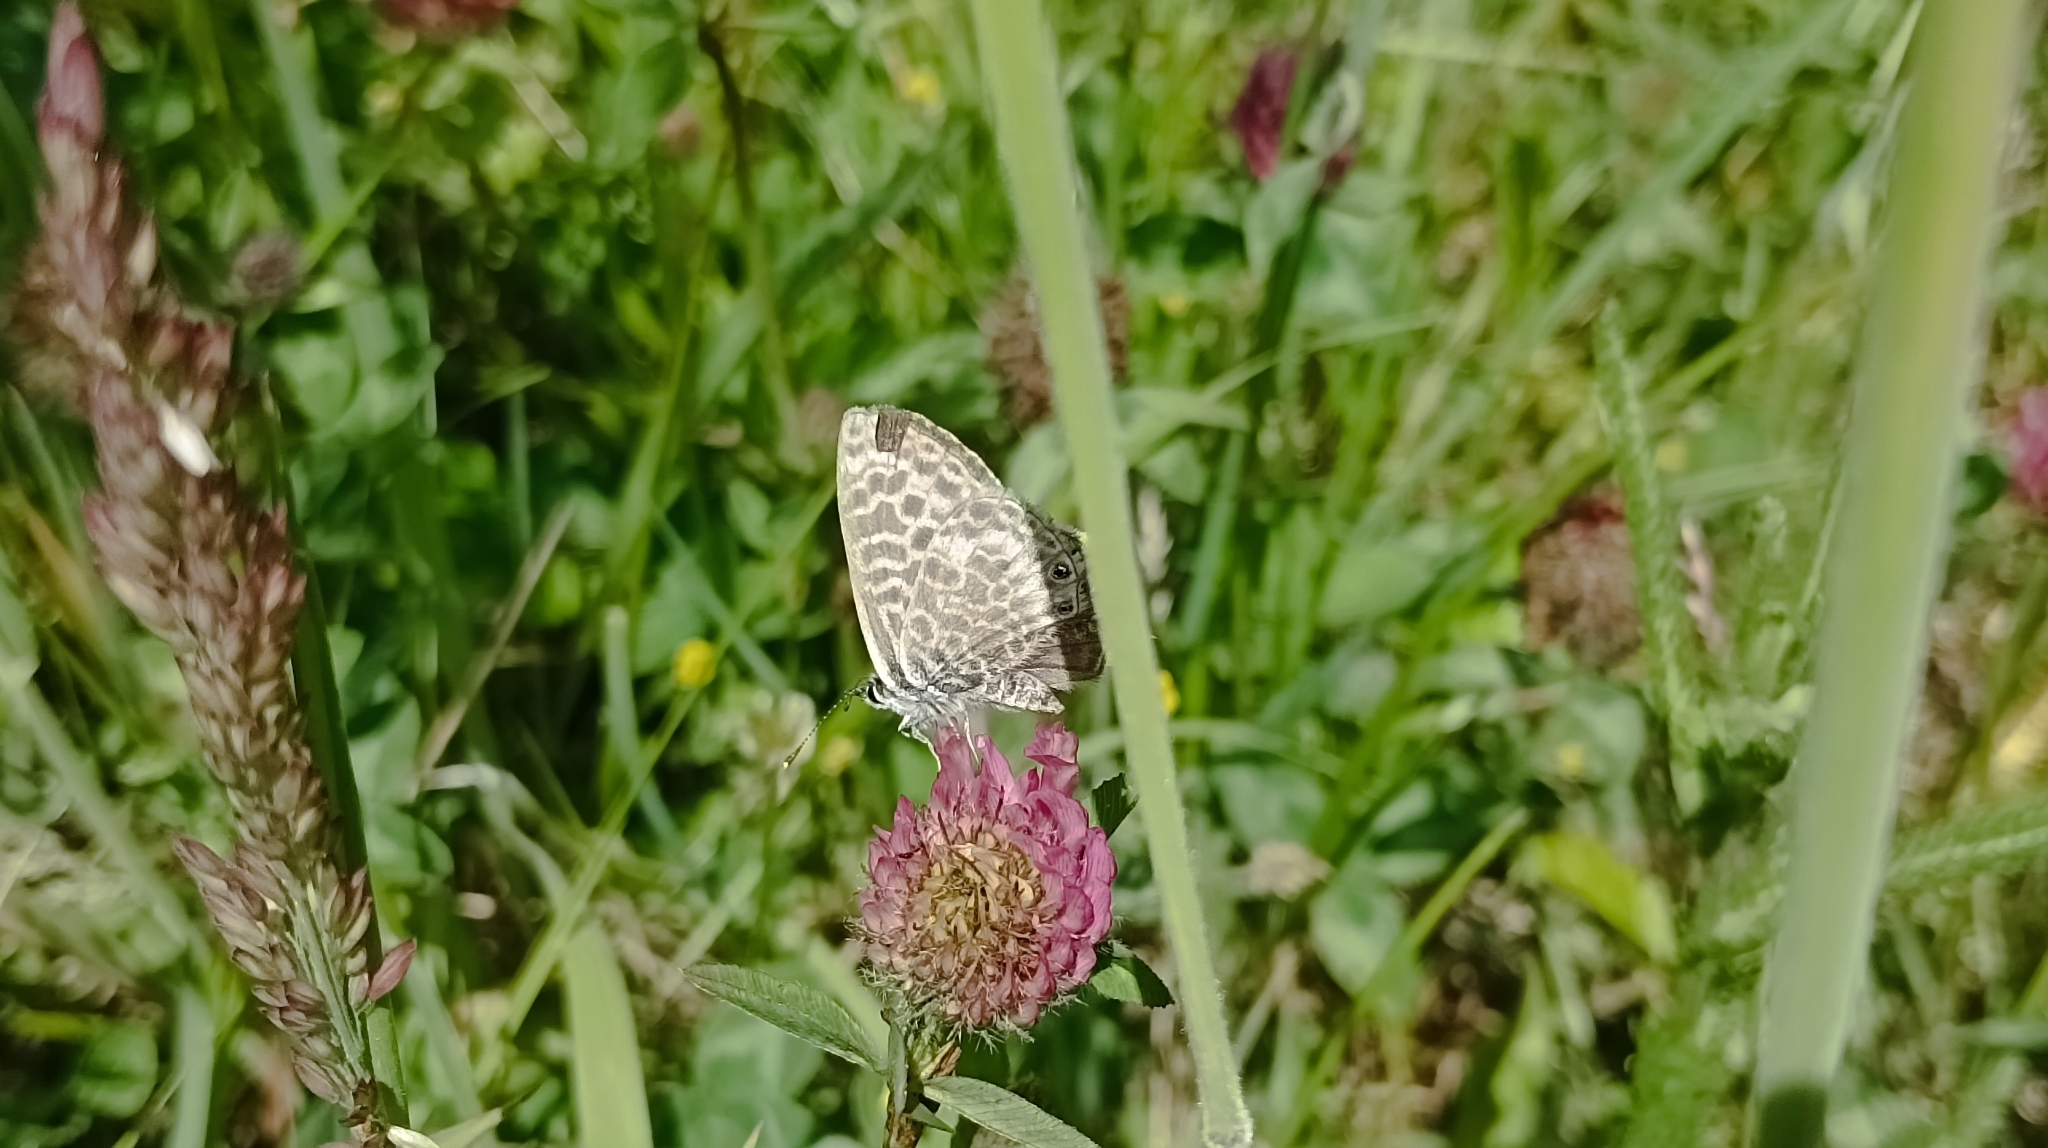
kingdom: Animalia
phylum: Arthropoda
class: Insecta
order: Lepidoptera
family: Lycaenidae
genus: Leptotes
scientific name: Leptotes pirithous
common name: Lang's short-tailed blue
